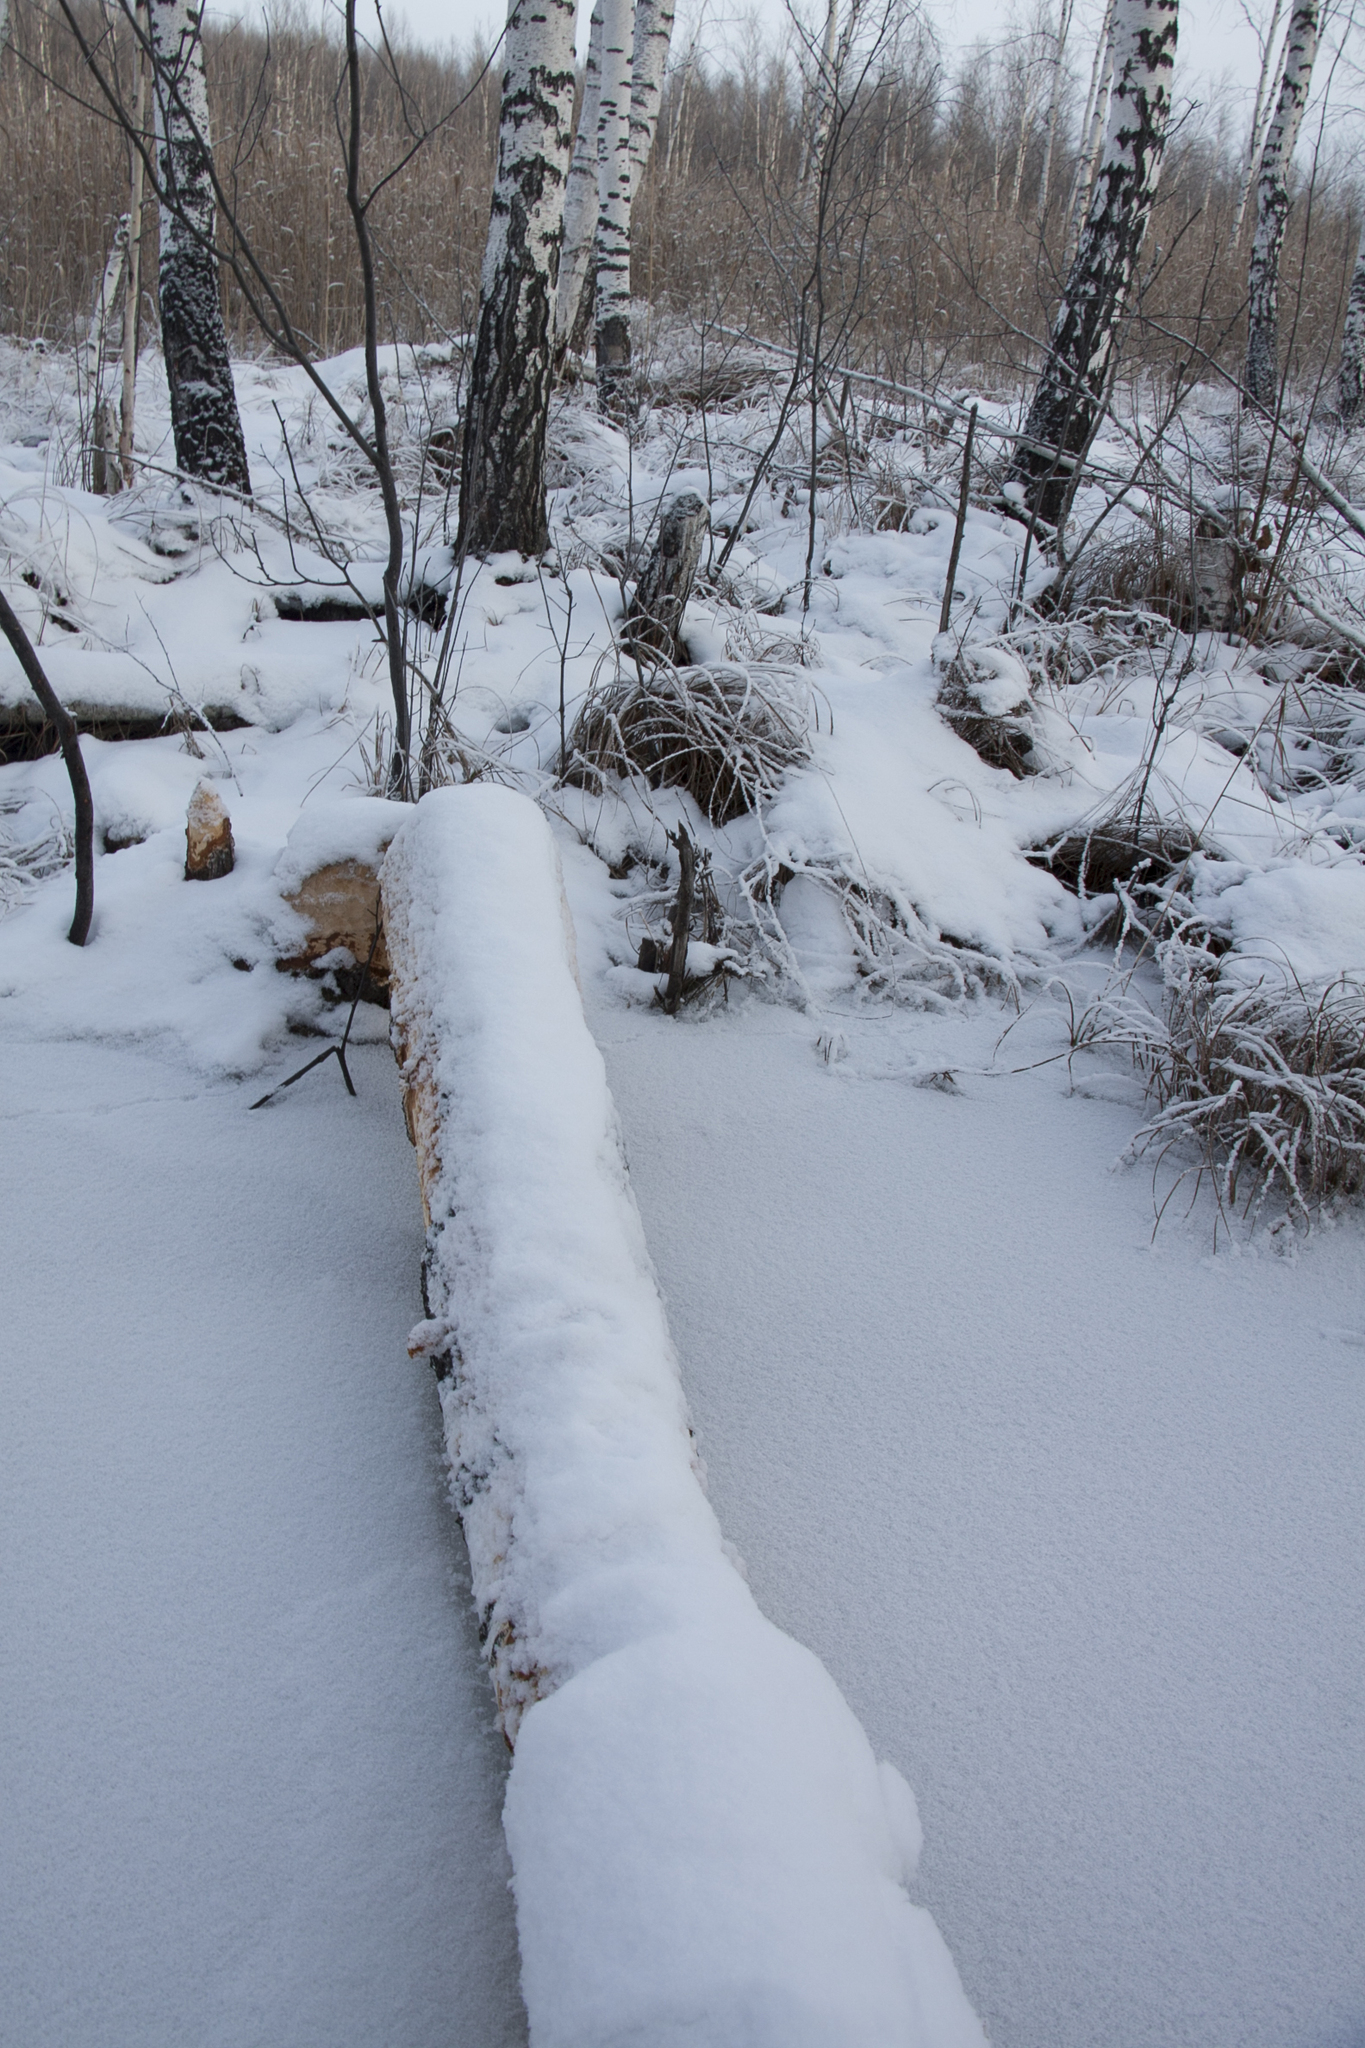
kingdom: Animalia
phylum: Chordata
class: Mammalia
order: Rodentia
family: Castoridae
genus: Castor
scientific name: Castor fiber
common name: Eurasian beaver
